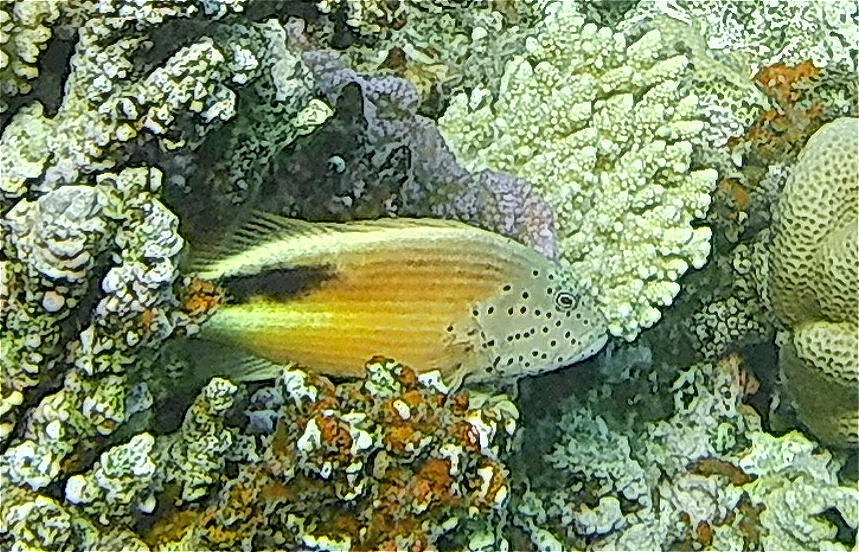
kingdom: Animalia
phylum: Chordata
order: Perciformes
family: Cirrhitidae
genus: Paracirrhites
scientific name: Paracirrhites forsteri
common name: Freckled hawkfish
